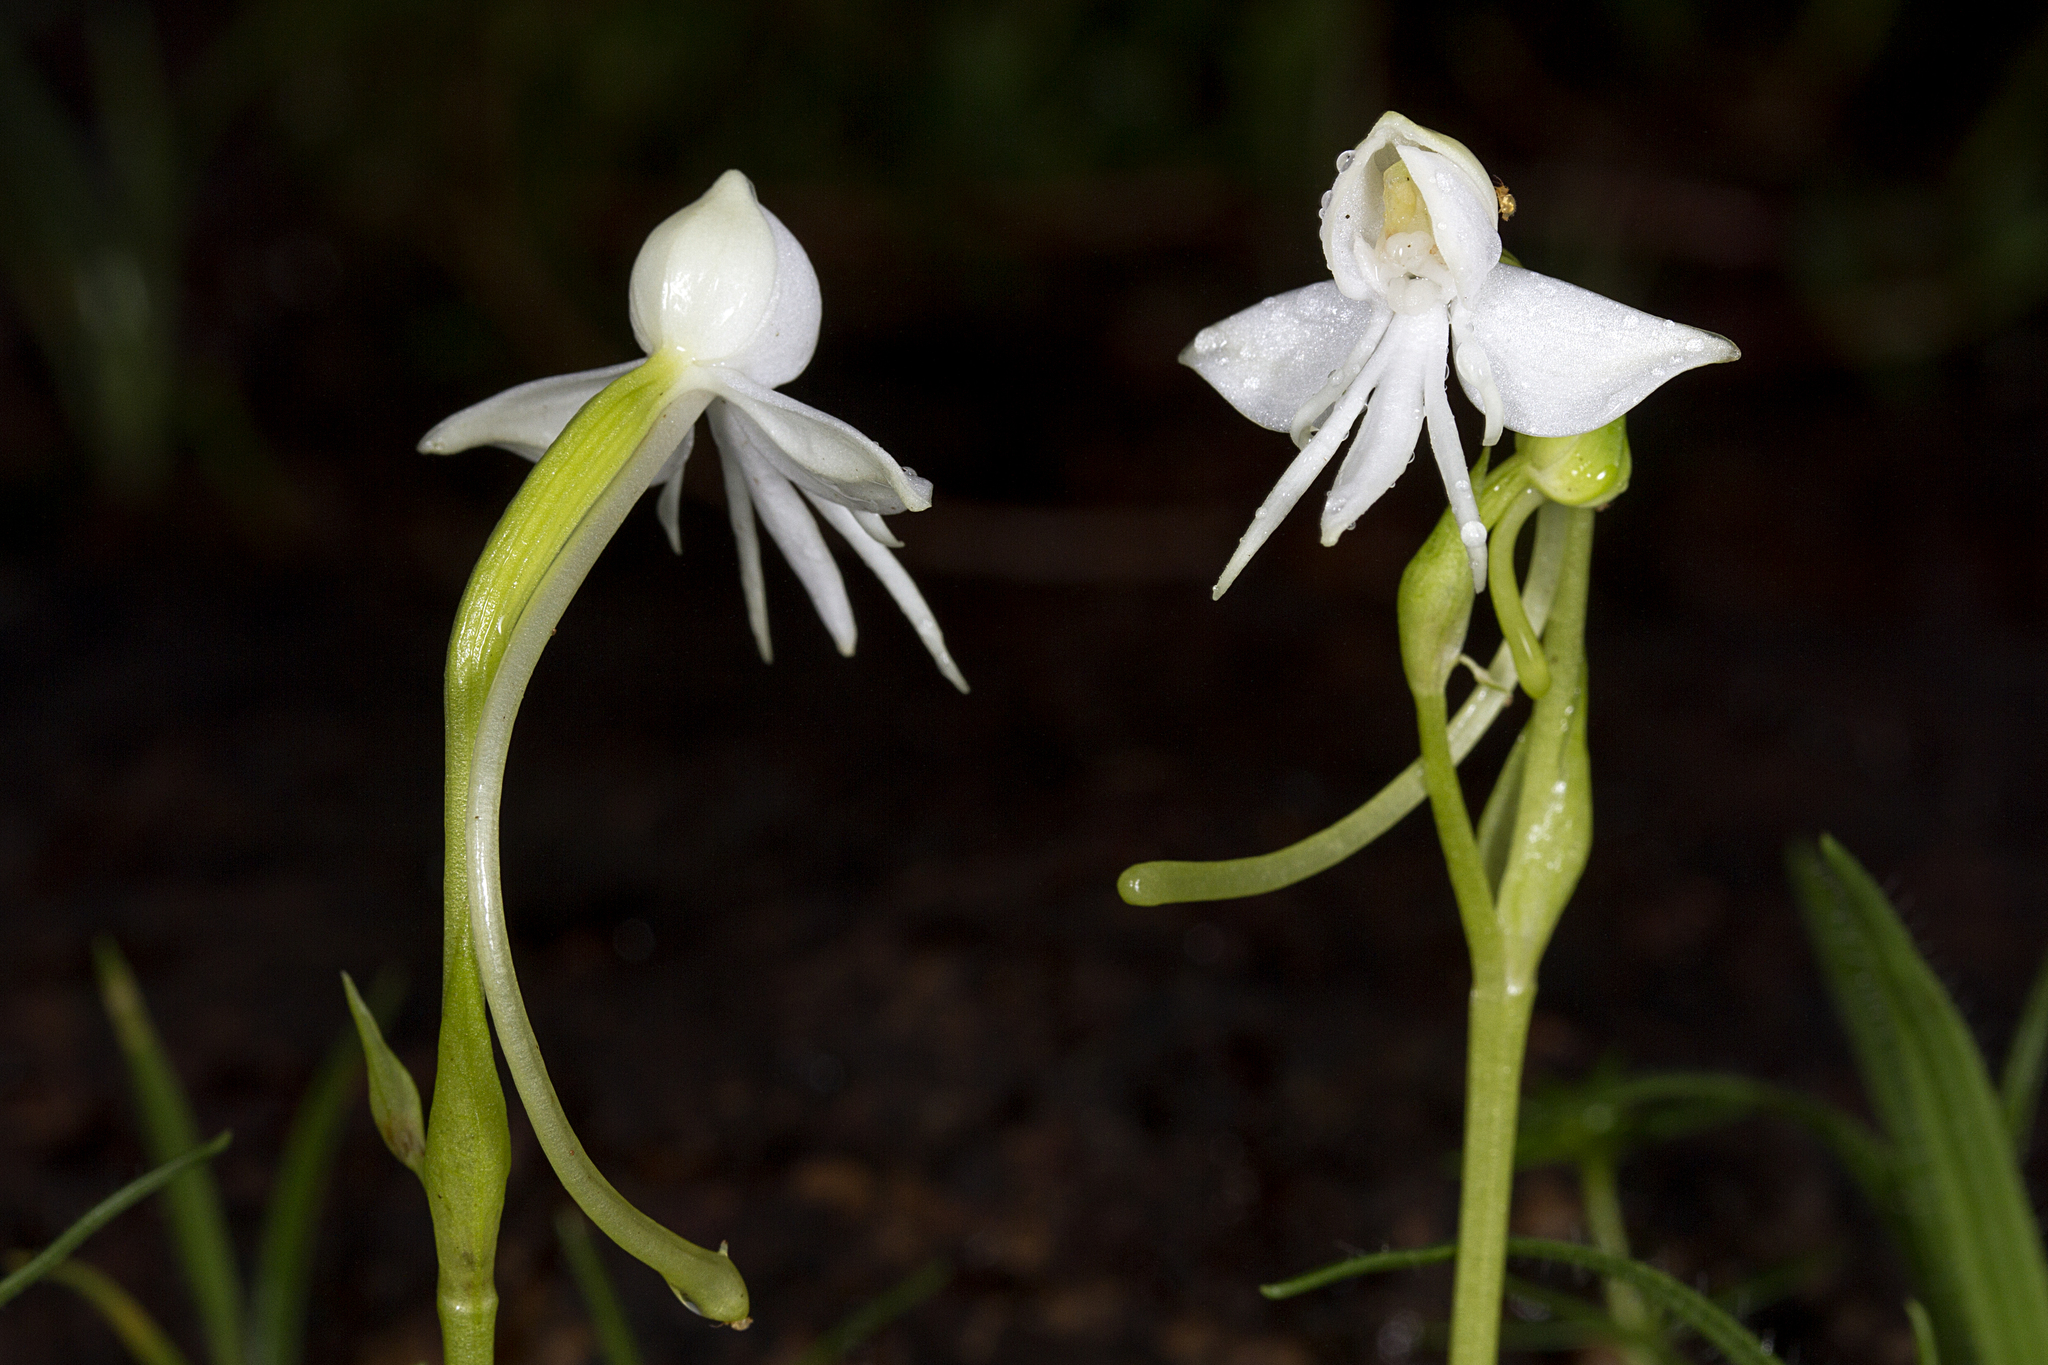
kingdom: Plantae
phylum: Tracheophyta
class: Liliopsida
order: Asparagales
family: Orchidaceae
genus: Habenaria
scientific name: Habenaria rariflora
